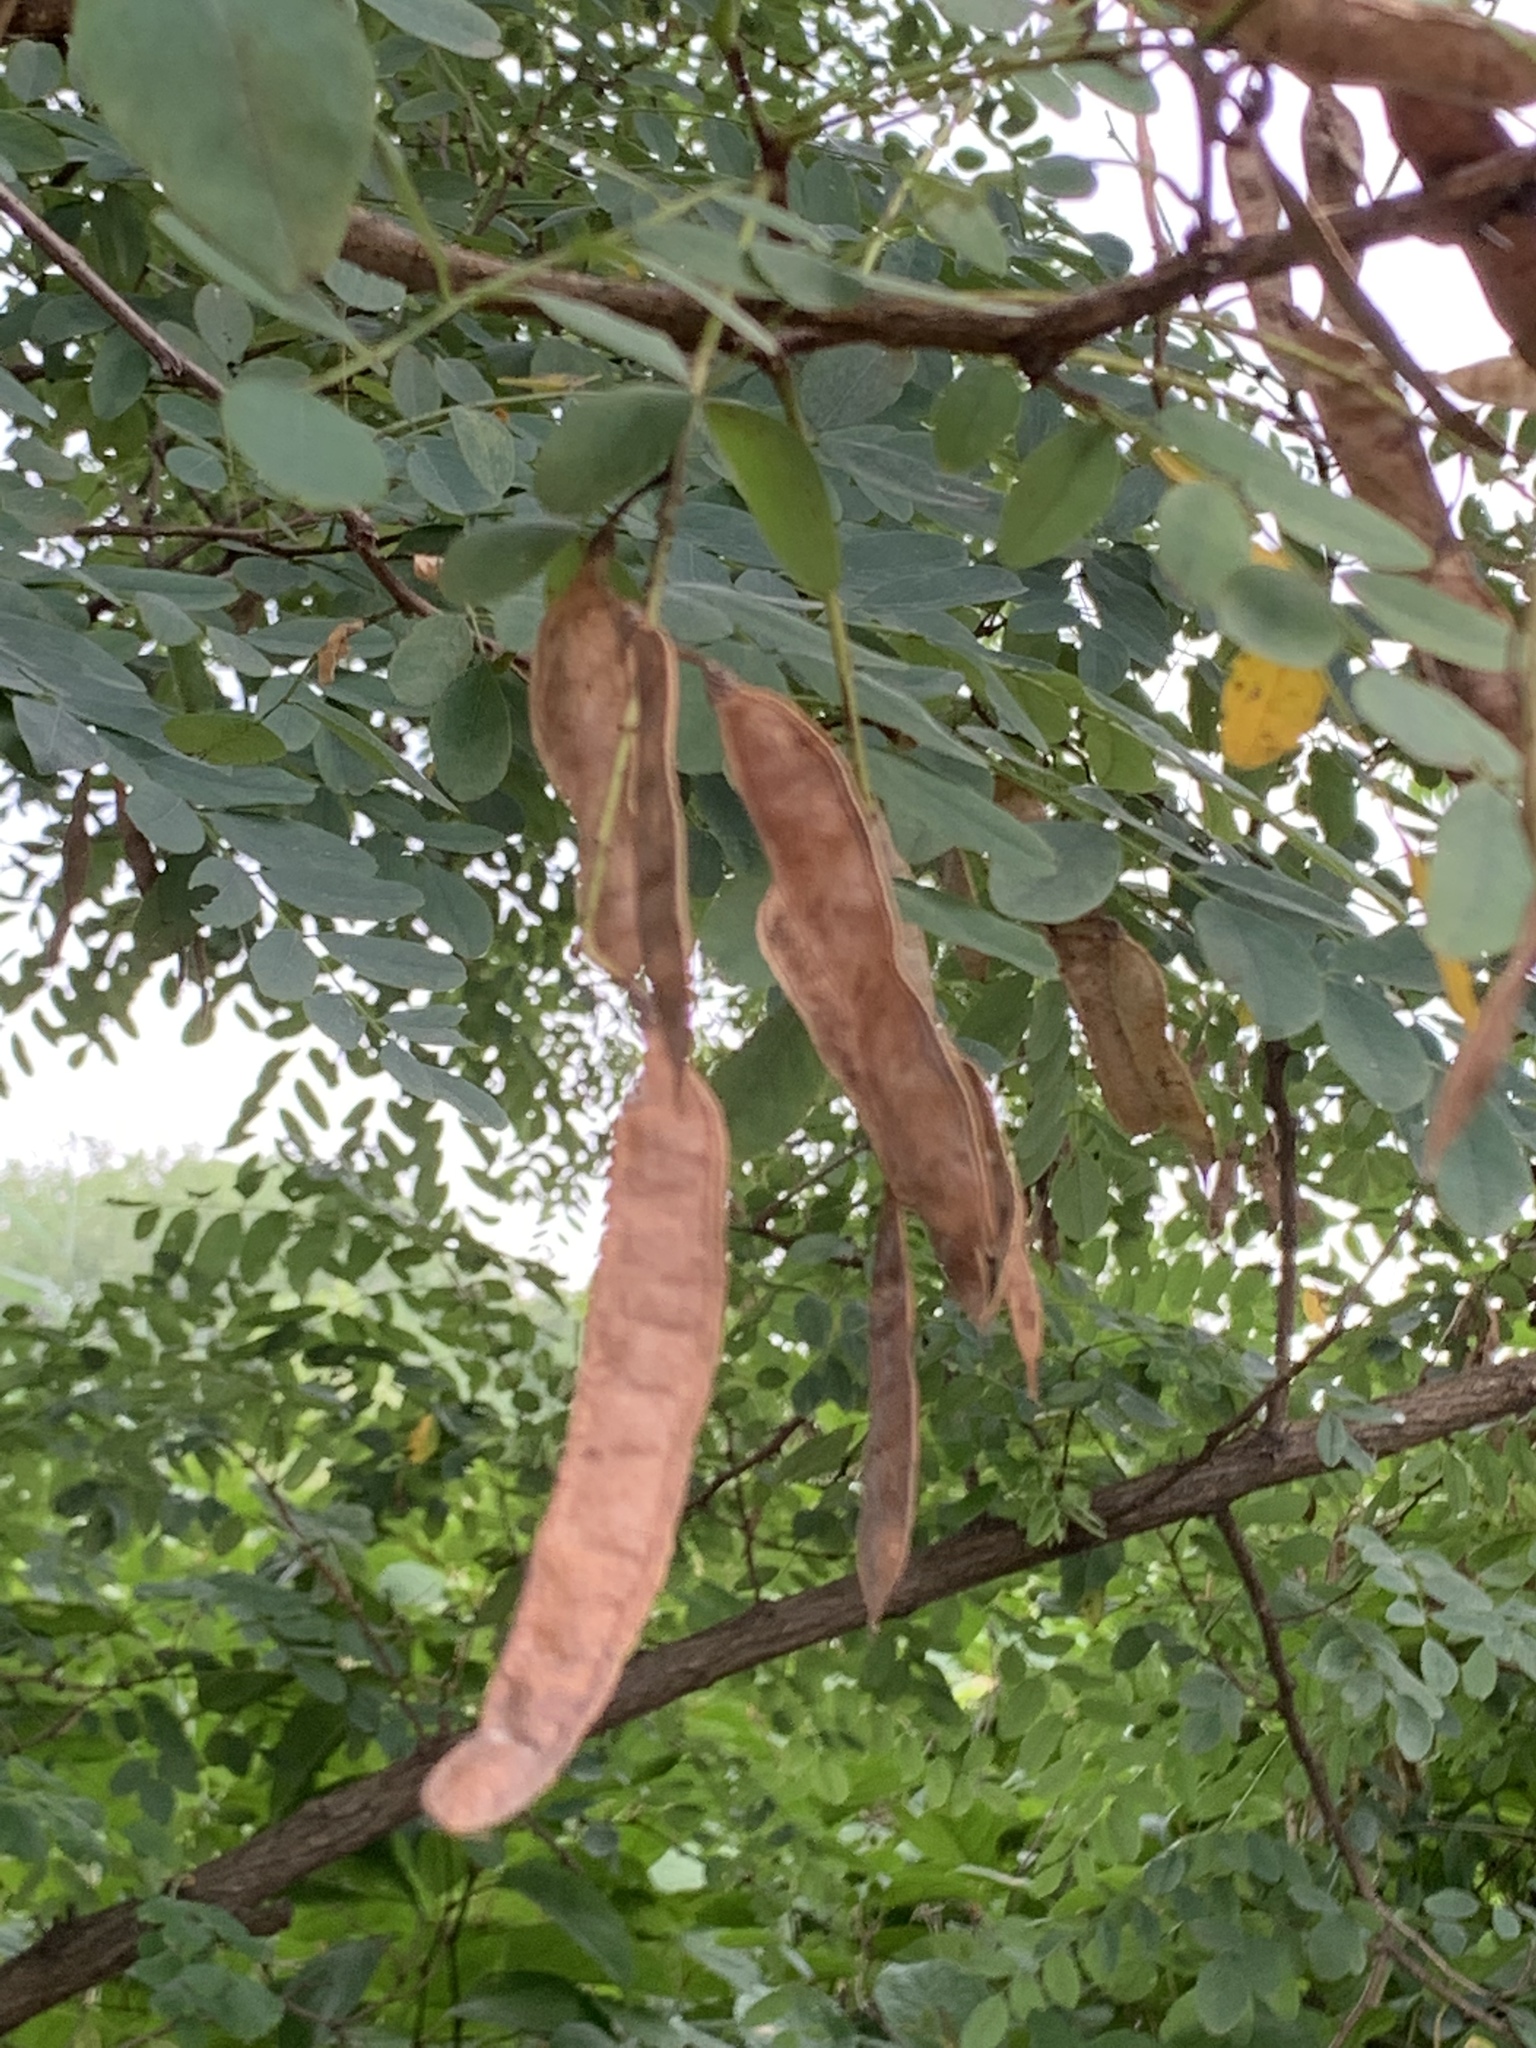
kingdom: Plantae
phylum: Tracheophyta
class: Magnoliopsida
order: Fabales
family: Fabaceae
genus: Robinia
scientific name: Robinia pseudoacacia
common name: Black locust
